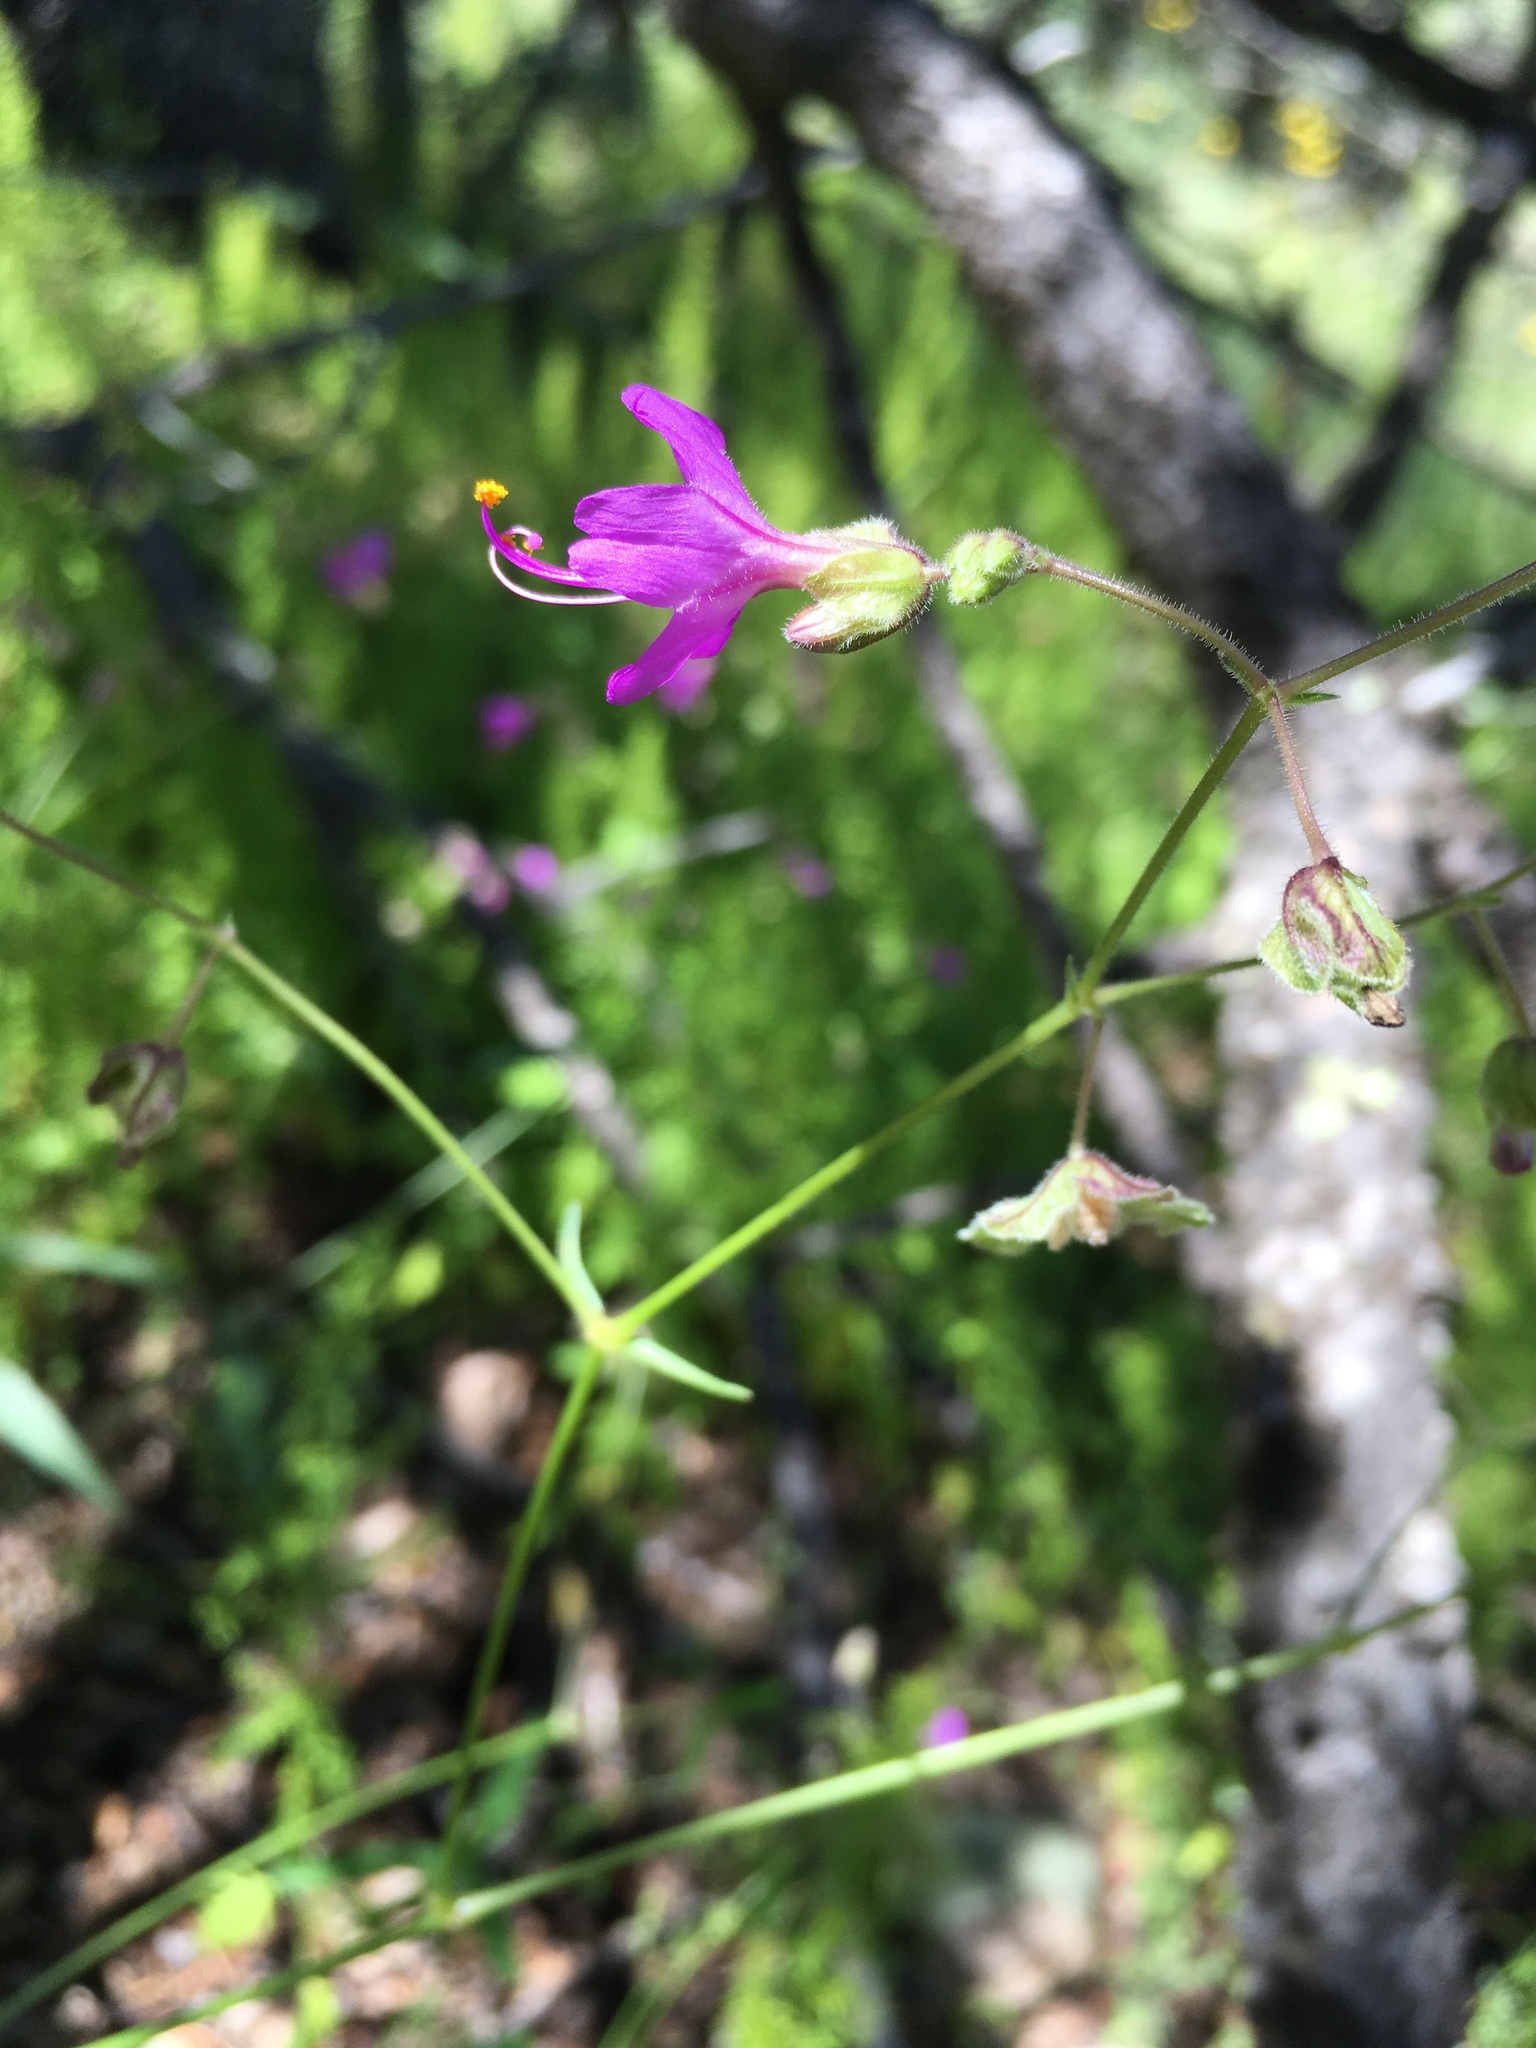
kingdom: Plantae
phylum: Tracheophyta
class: Magnoliopsida
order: Caryophyllales
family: Nyctaginaceae
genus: Mirabilis
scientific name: Mirabilis linearis
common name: Linear-leaved four-o'clock
